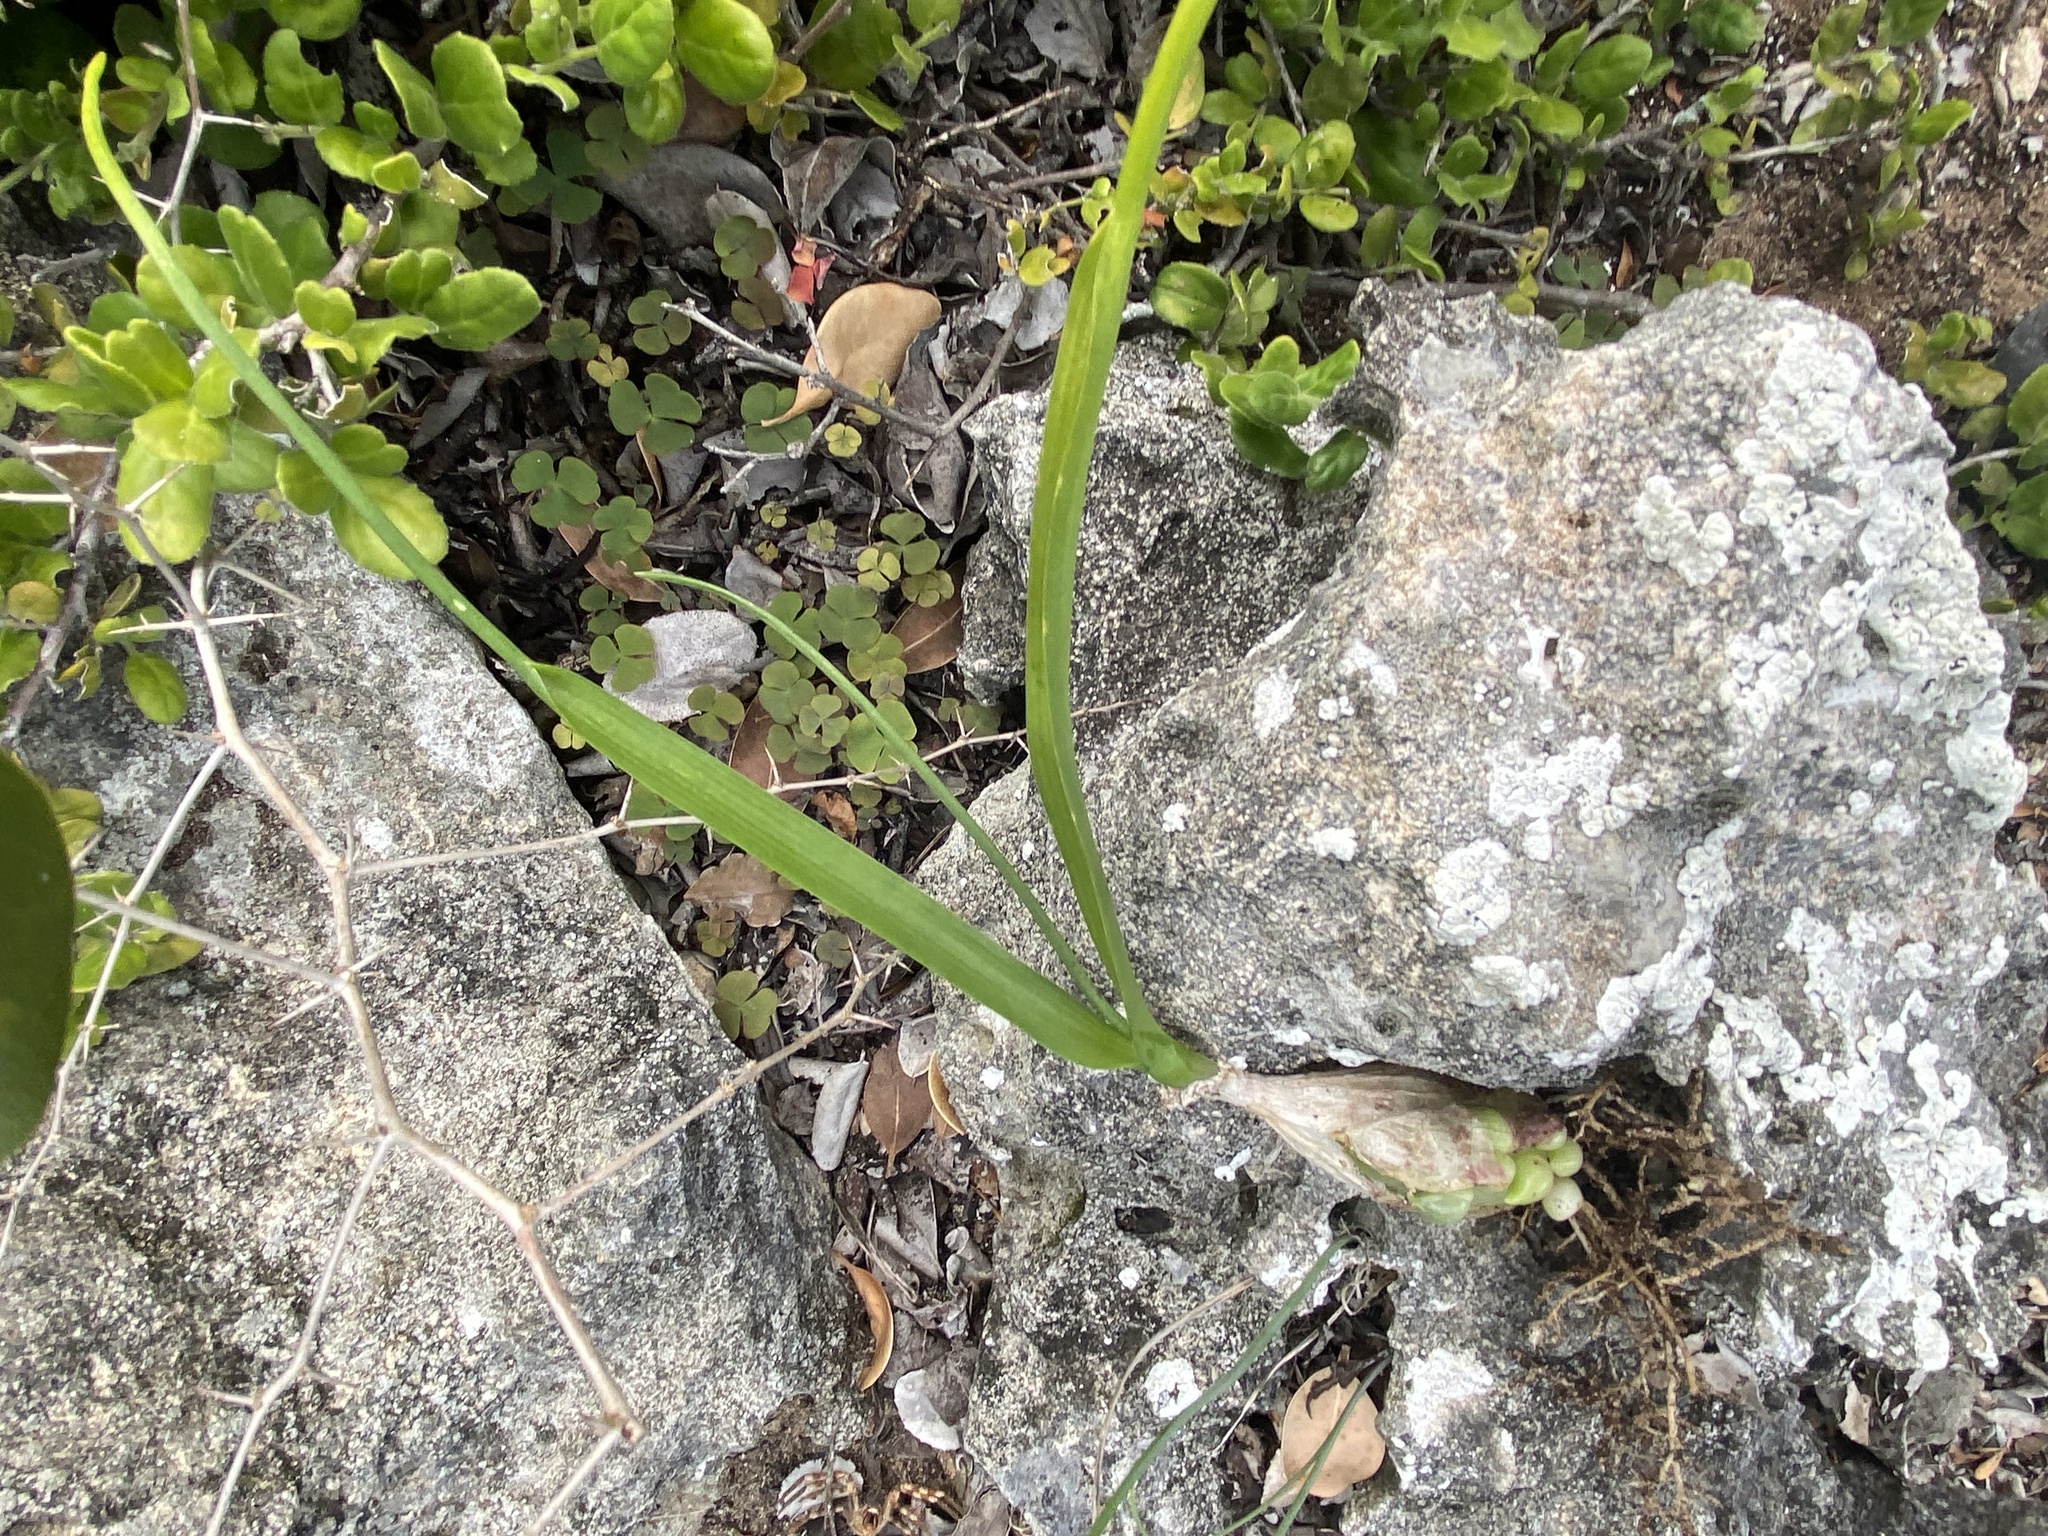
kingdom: Plantae
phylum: Tracheophyta
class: Liliopsida
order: Asparagales
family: Asparagaceae
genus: Albuca
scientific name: Albuca bracteata
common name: Sea-onion
